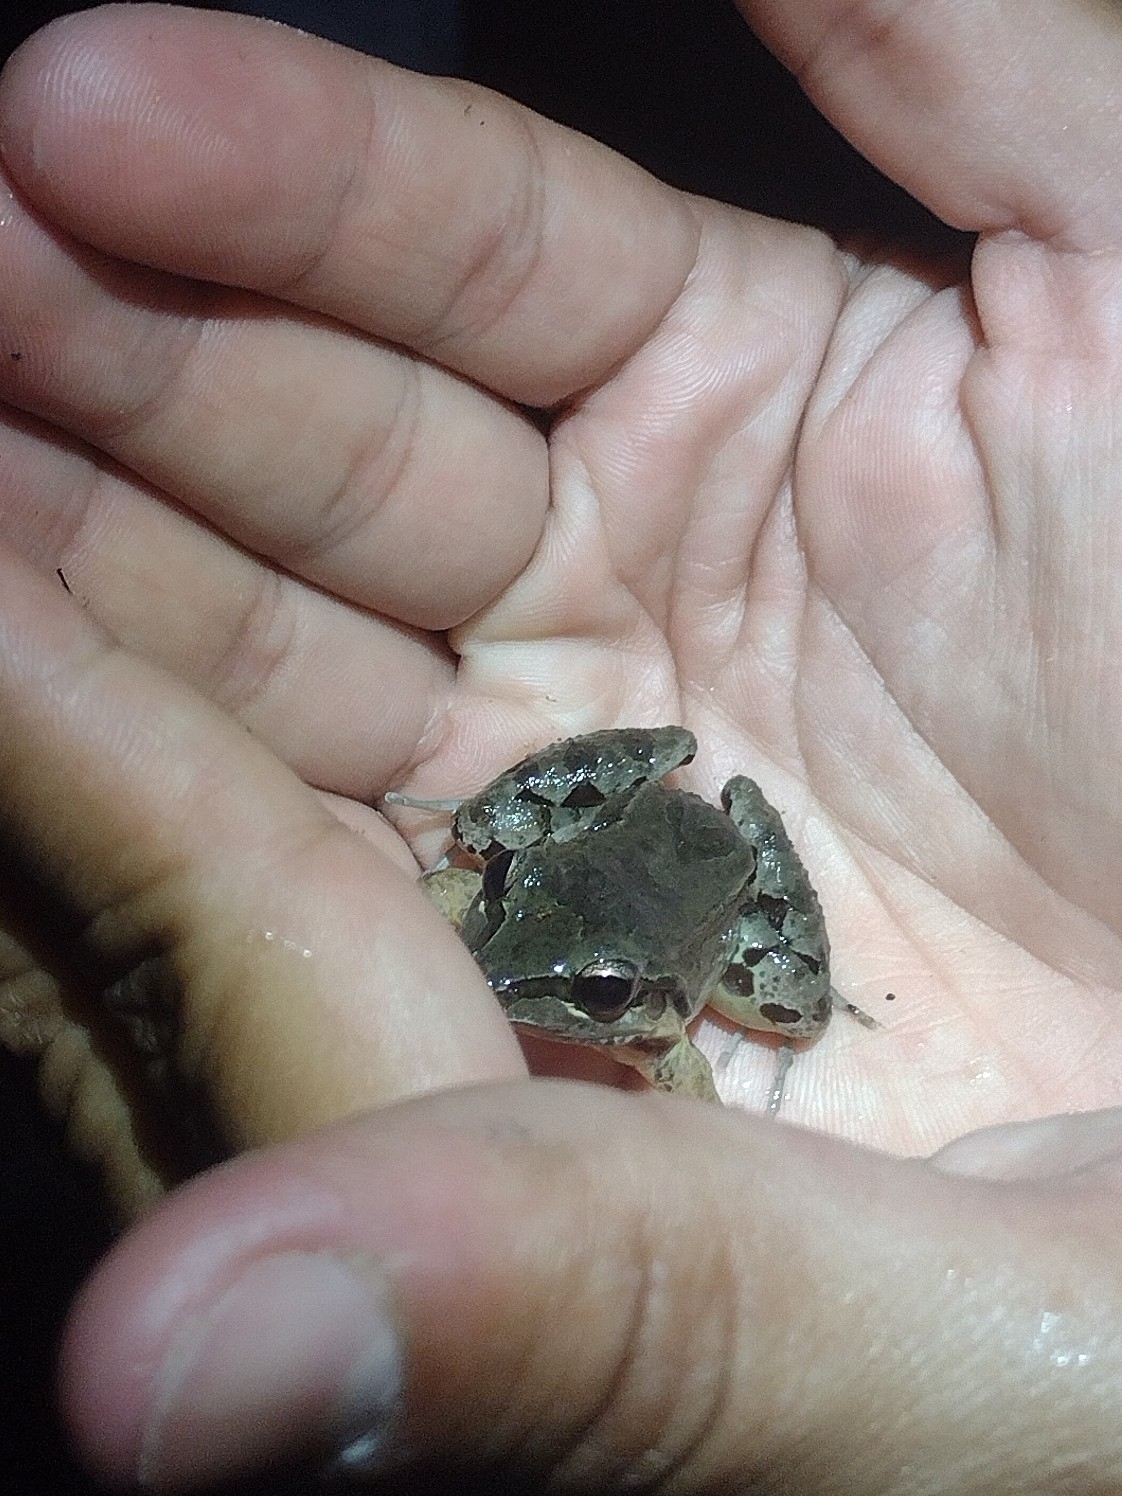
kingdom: Animalia
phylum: Chordata
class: Amphibia
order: Anura
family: Leptodactylidae
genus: Leptodactylus
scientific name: Leptodactylus albilabris
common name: Caribbean white-lipped frog
